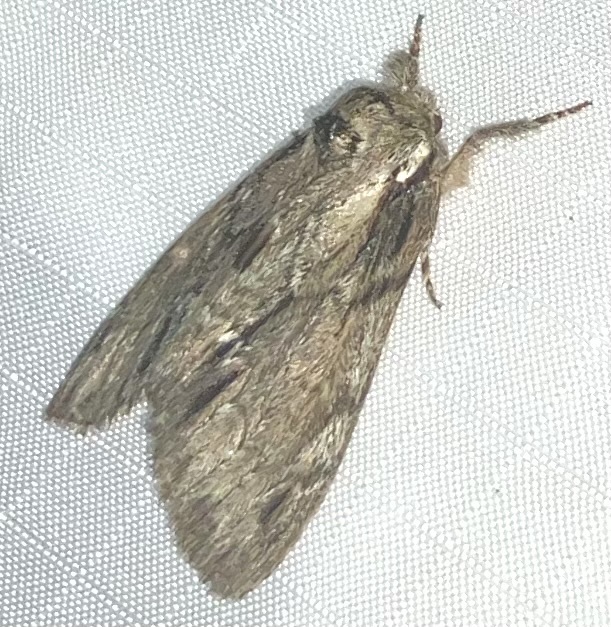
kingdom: Animalia
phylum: Arthropoda
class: Insecta
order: Lepidoptera
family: Notodontidae
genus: Paraeschra
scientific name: Paraeschra georgica
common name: Georgian prominent
